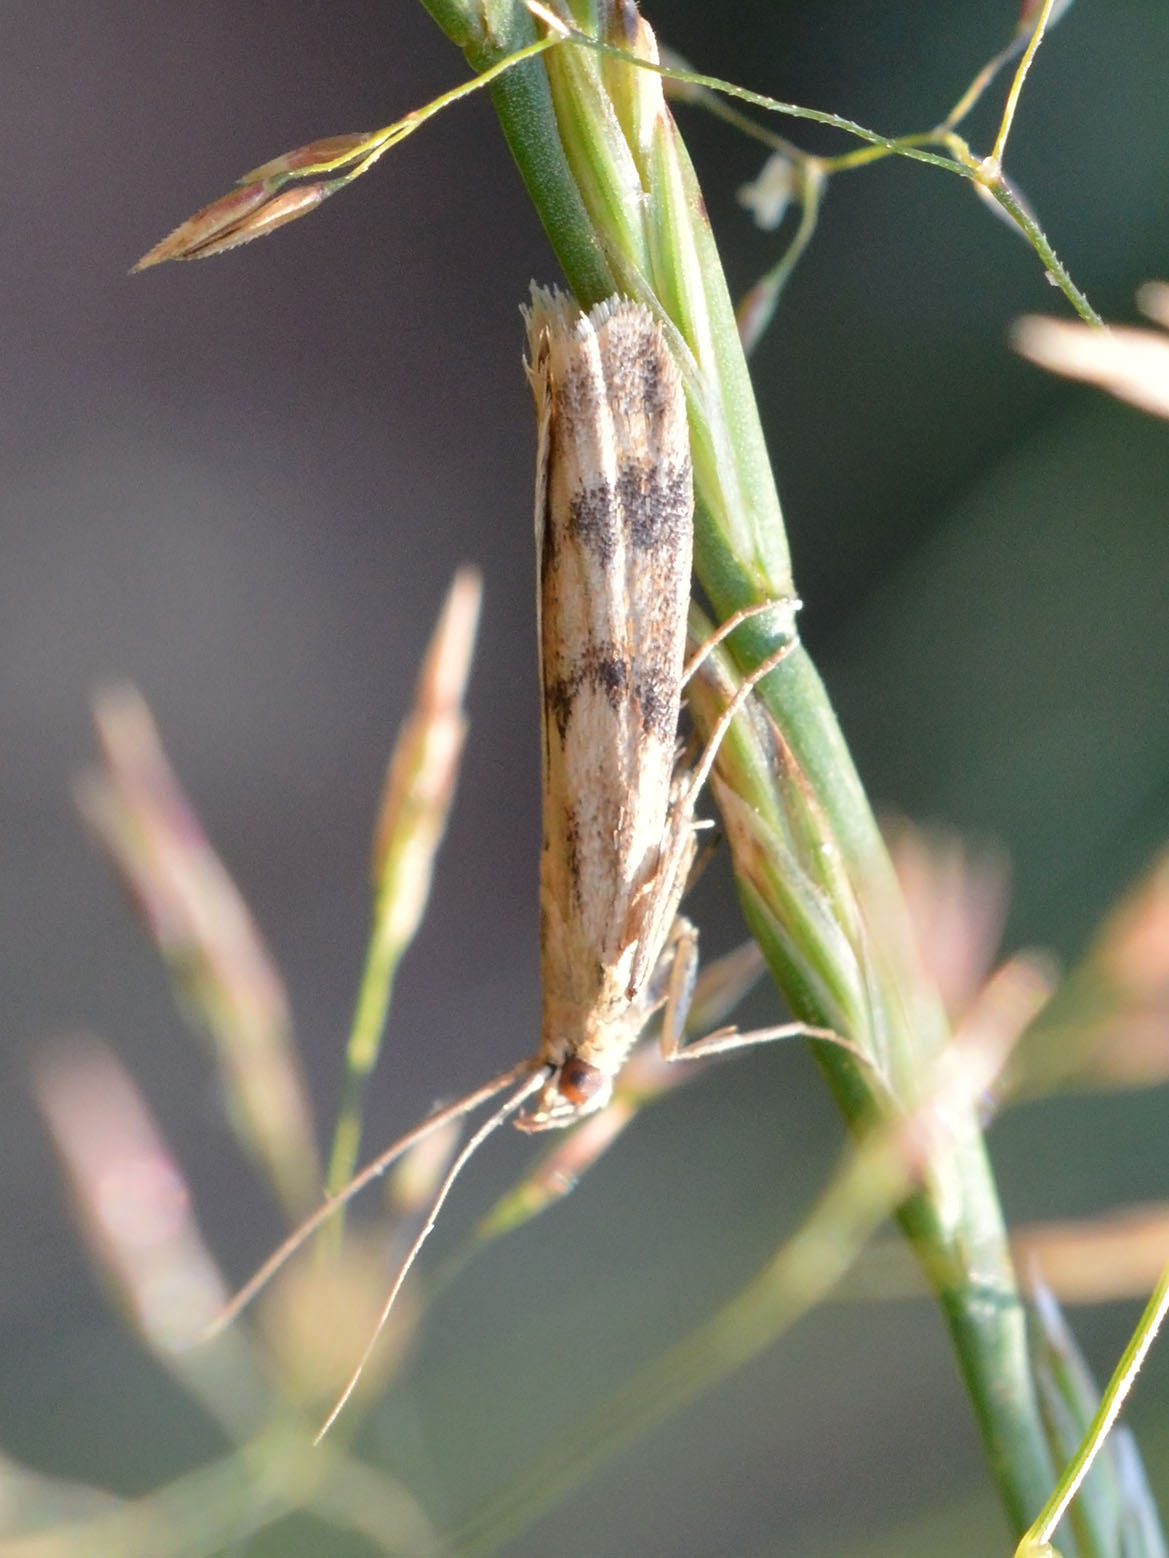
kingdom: Animalia
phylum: Arthropoda
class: Insecta
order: Lepidoptera
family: Pyralidae
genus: Homoeosoma
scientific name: Homoeosoma sinuella
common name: Twin-barred knot-horn
